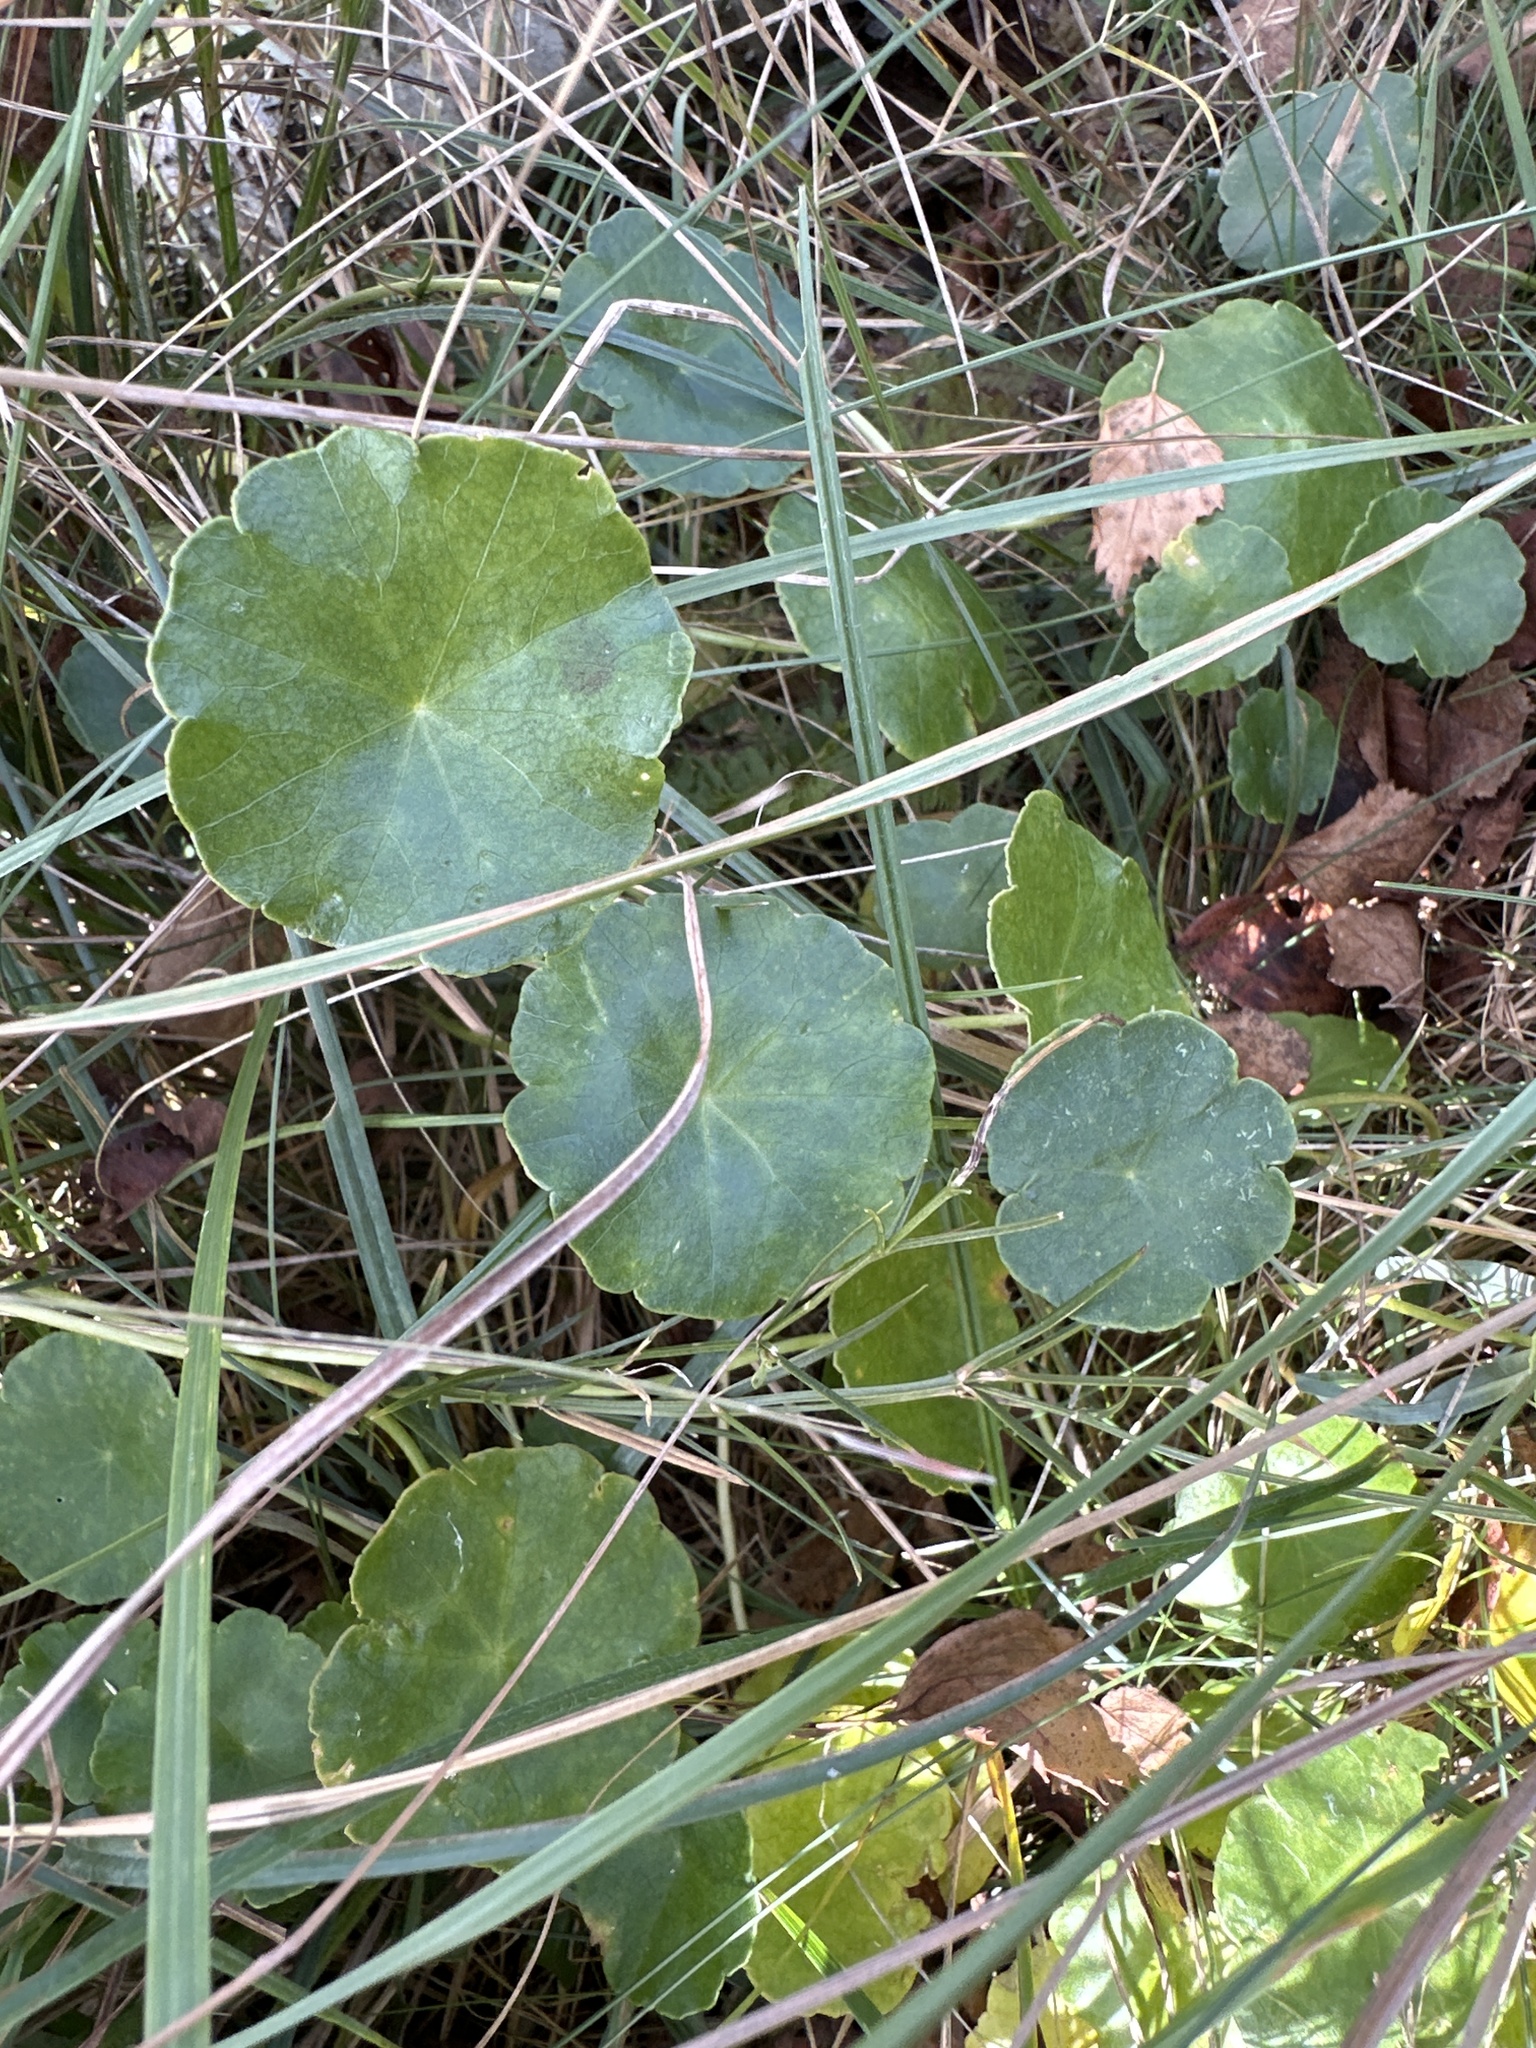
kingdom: Plantae
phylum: Tracheophyta
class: Magnoliopsida
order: Apiales
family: Araliaceae
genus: Hydrocotyle
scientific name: Hydrocotyle vulgaris
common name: Marsh pennywort
